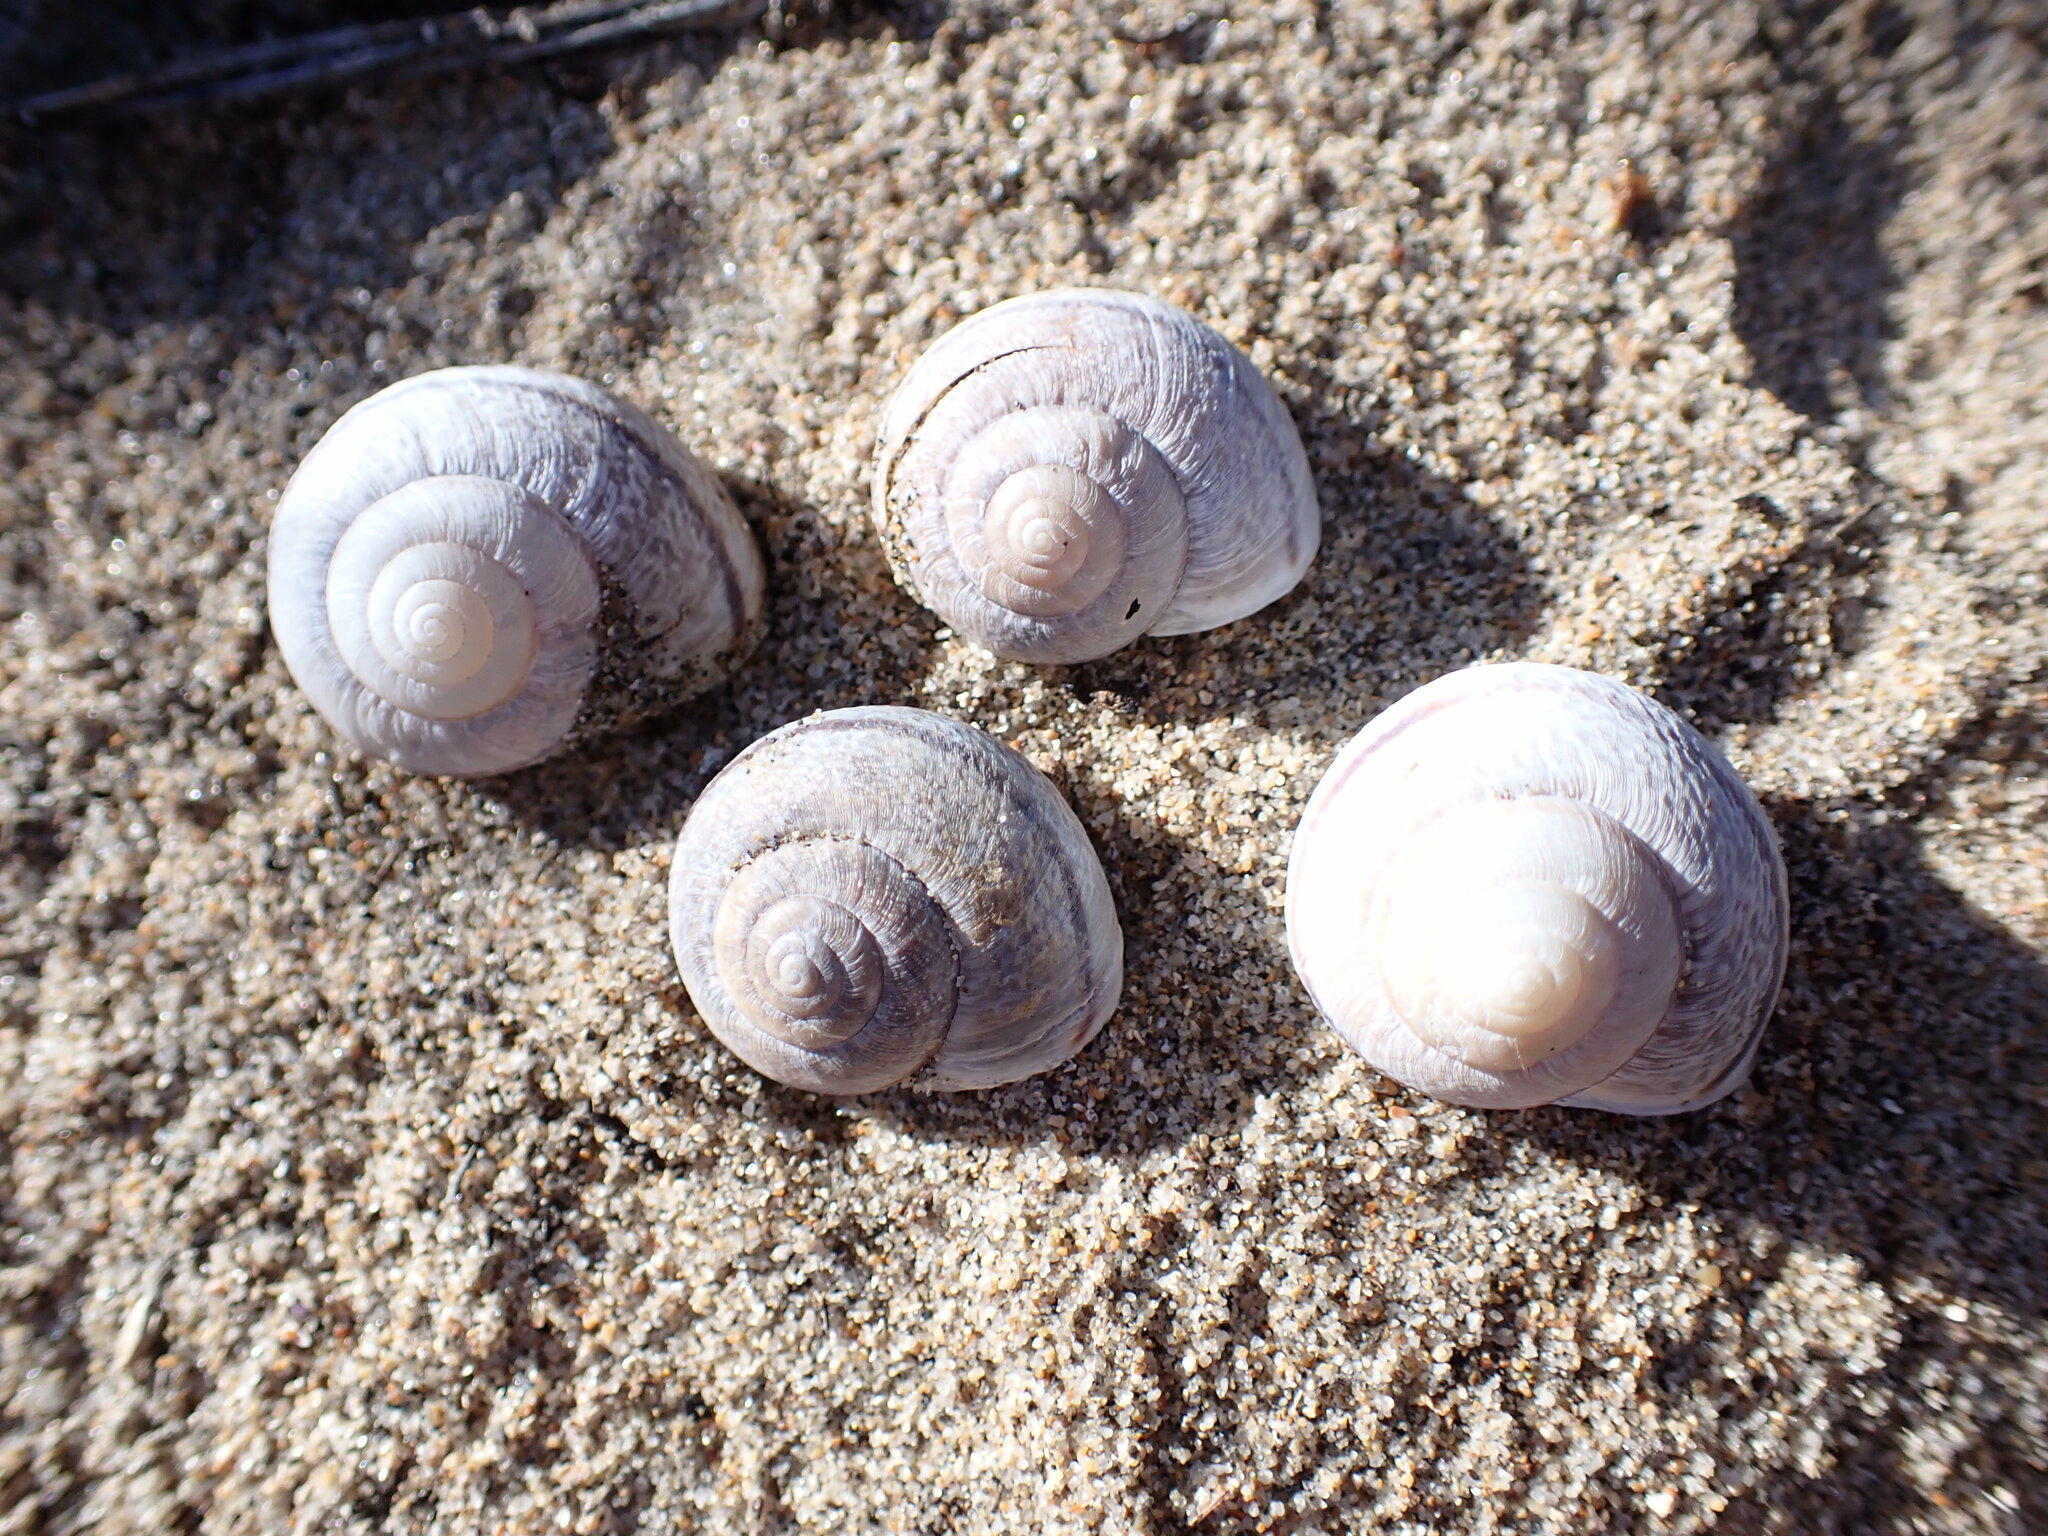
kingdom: Animalia
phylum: Mollusca
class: Gastropoda
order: Stylommatophora
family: Xanthonychidae
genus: Helminthoglypta
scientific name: Helminthoglypta nickliniana
